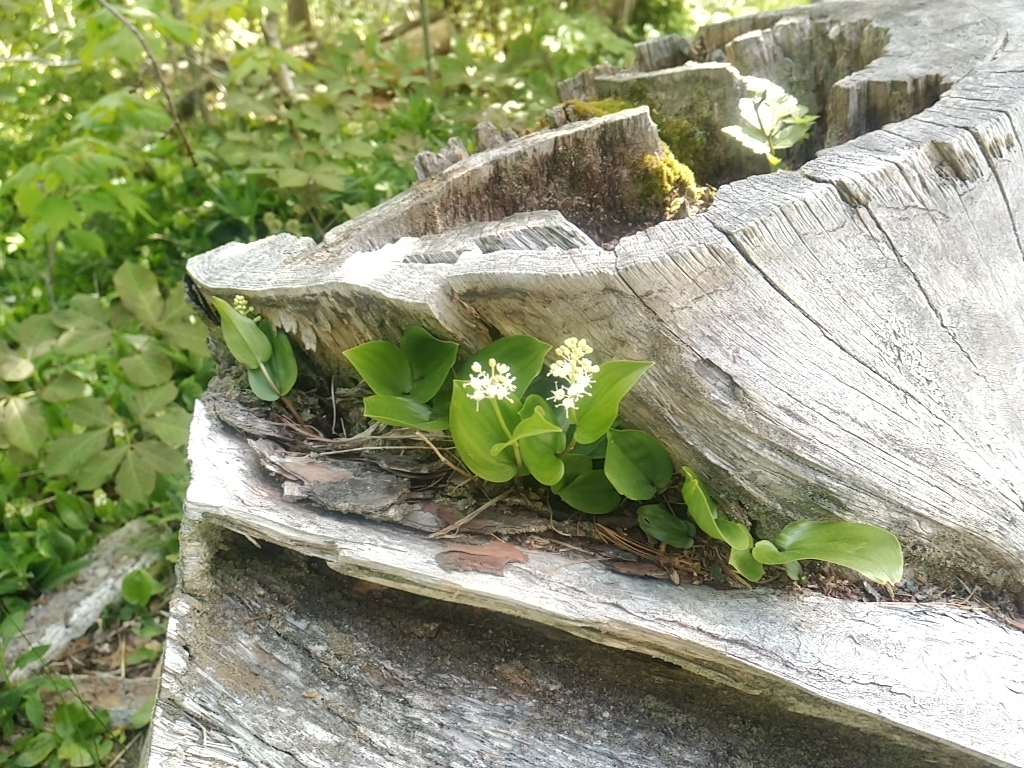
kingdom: Plantae
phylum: Tracheophyta
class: Liliopsida
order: Asparagales
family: Asparagaceae
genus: Maianthemum
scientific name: Maianthemum canadense
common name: False lily-of-the-valley
